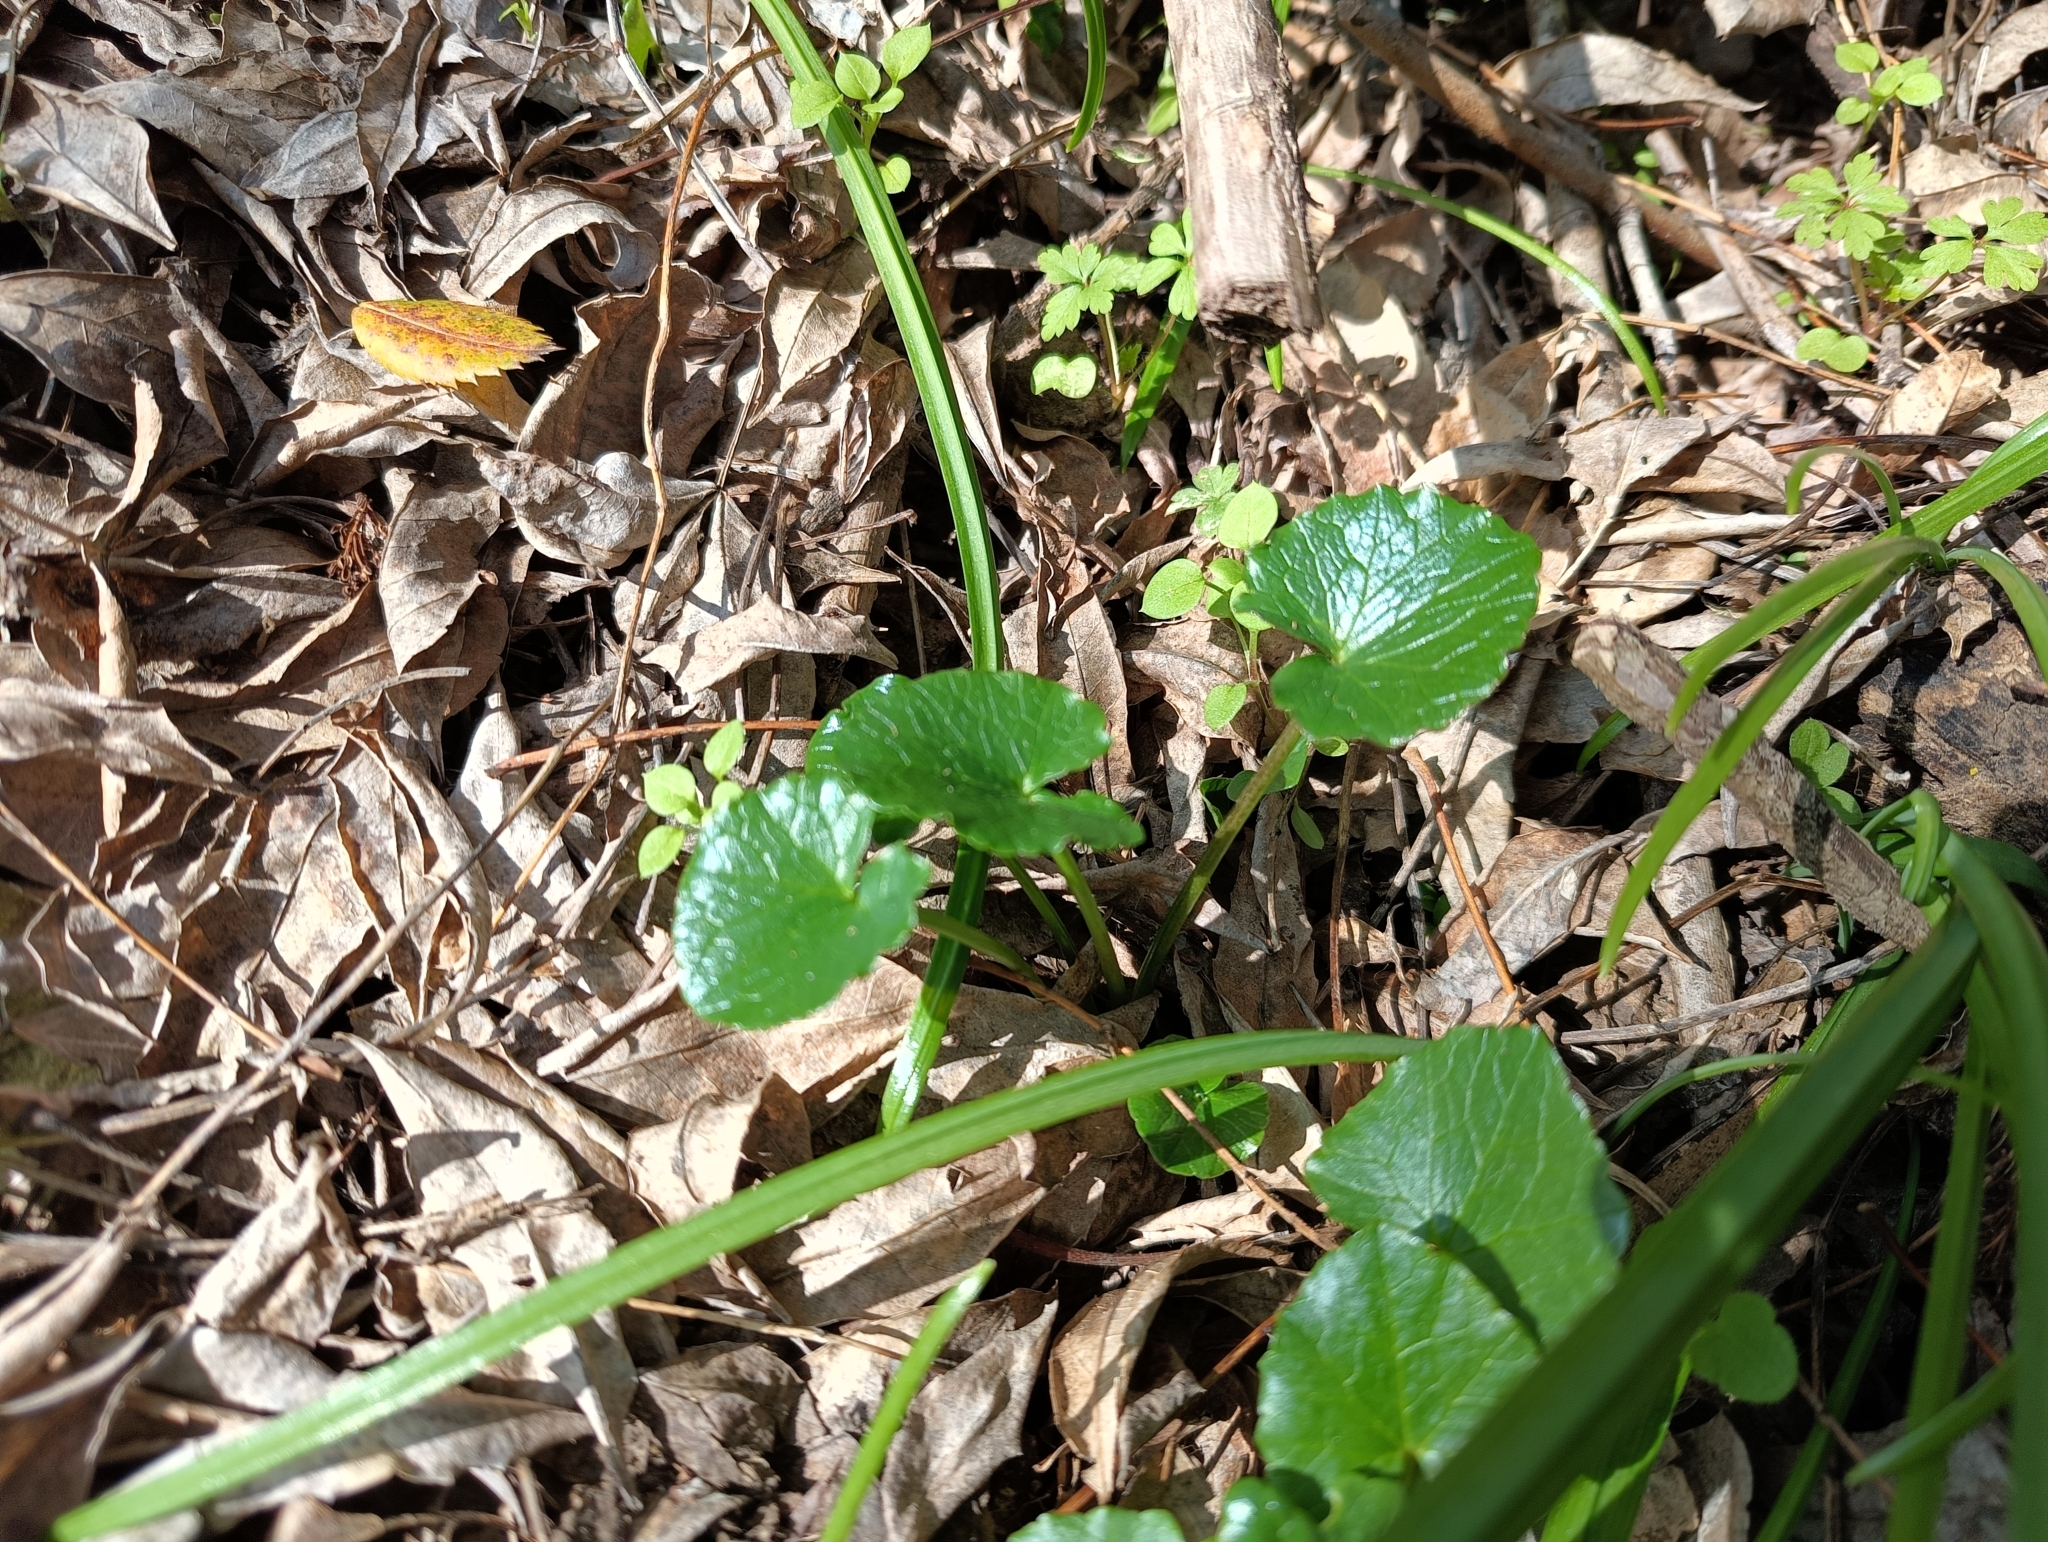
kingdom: Plantae
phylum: Tracheophyta
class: Magnoliopsida
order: Ranunculales
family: Ranunculaceae
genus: Ficaria
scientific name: Ficaria verna
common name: Lesser celandine
